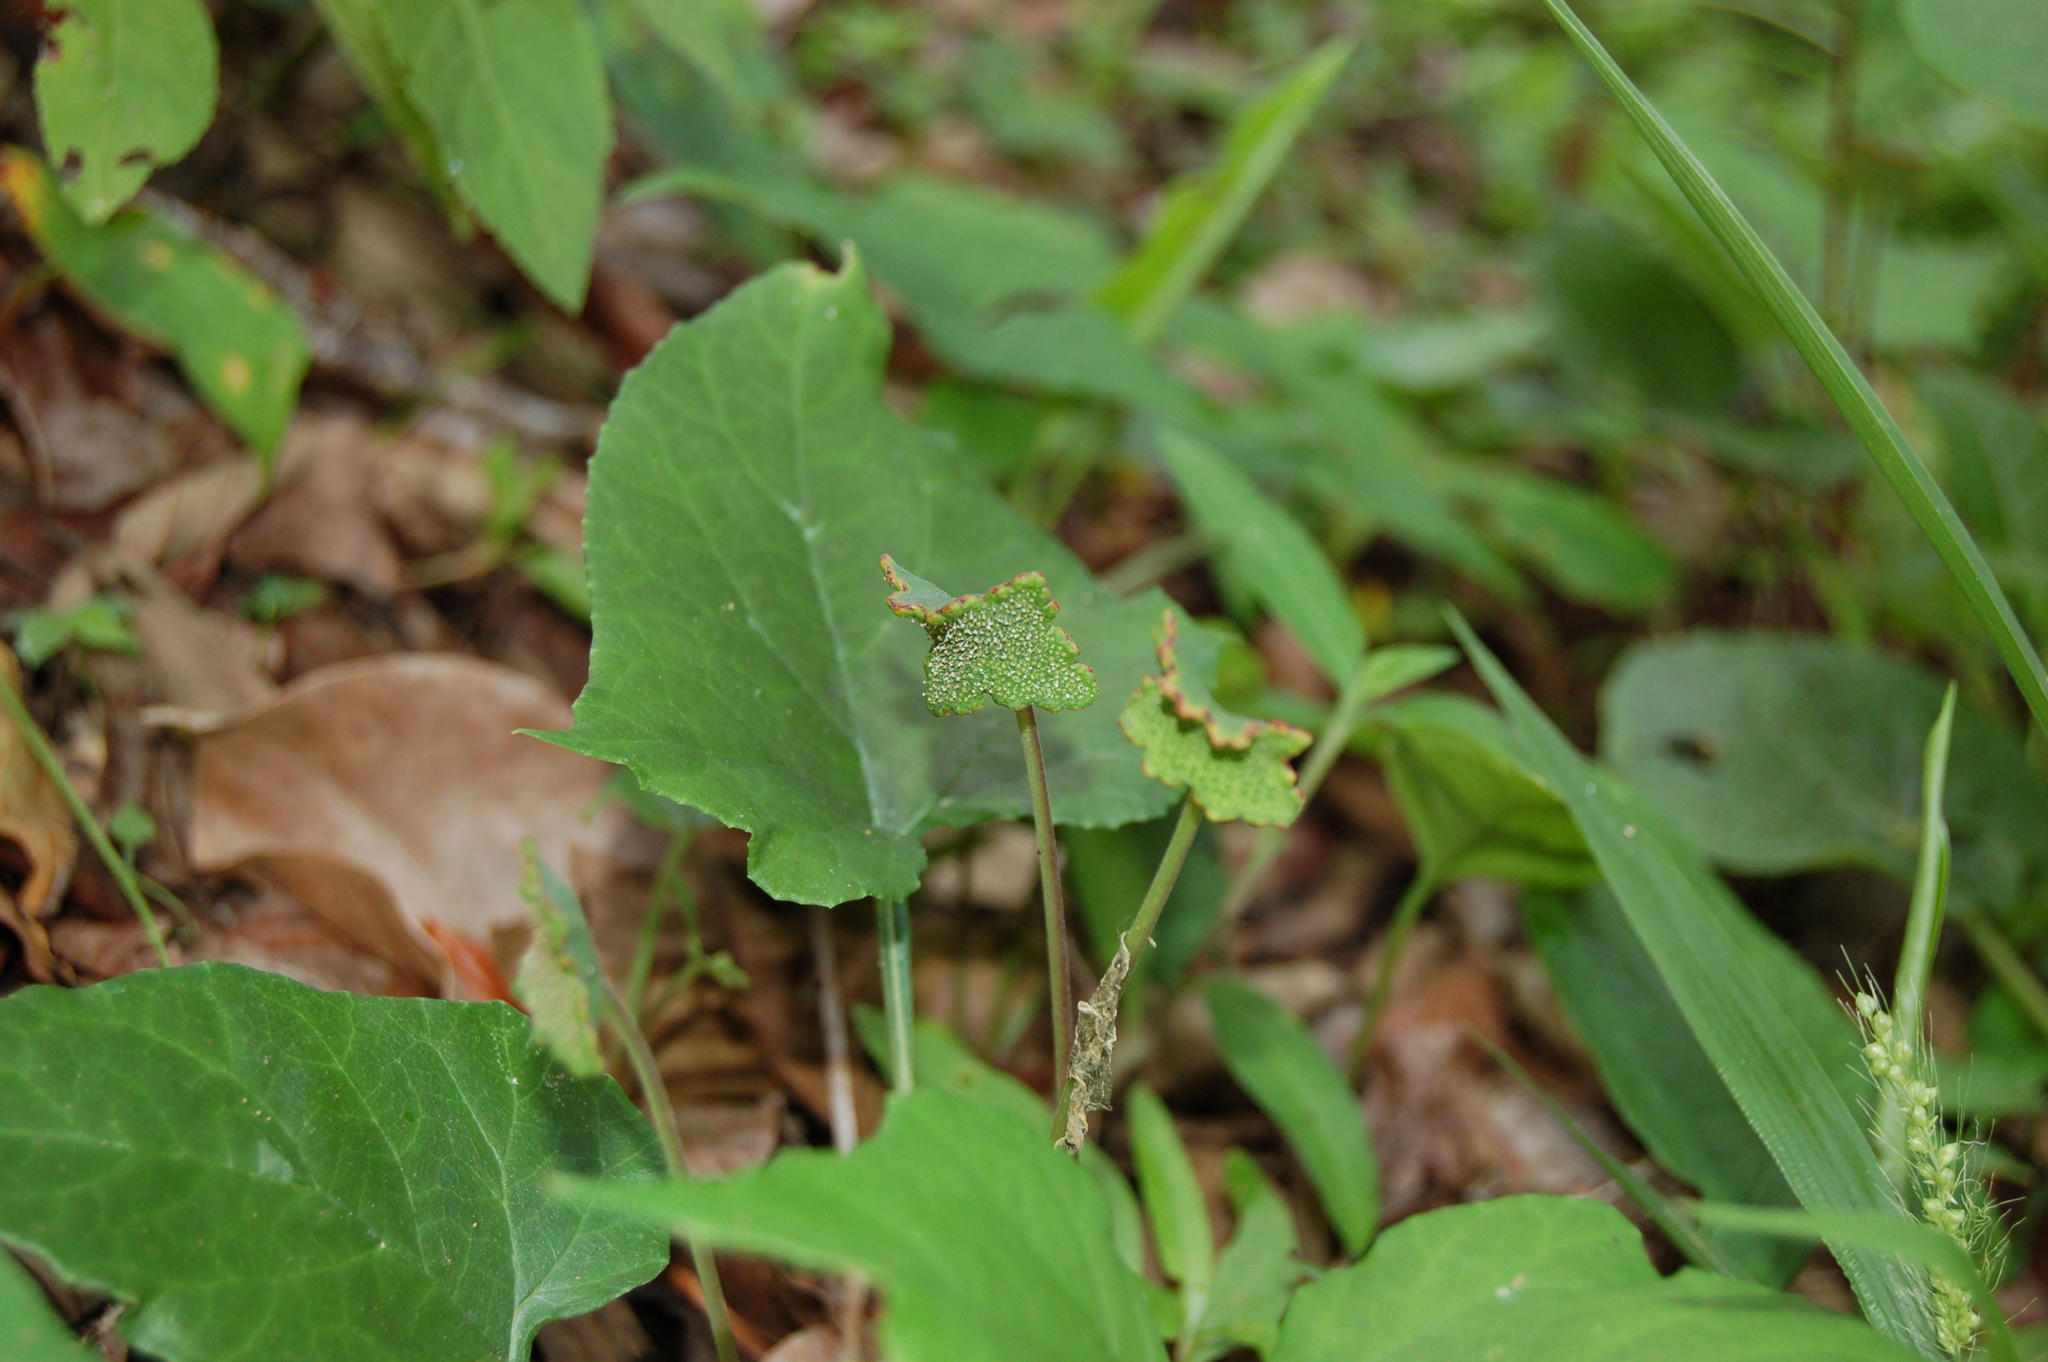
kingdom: Plantae
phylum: Tracheophyta
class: Magnoliopsida
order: Rosales
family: Moraceae
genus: Dorstenia
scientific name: Dorstenia contrajerva
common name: Tusilla
